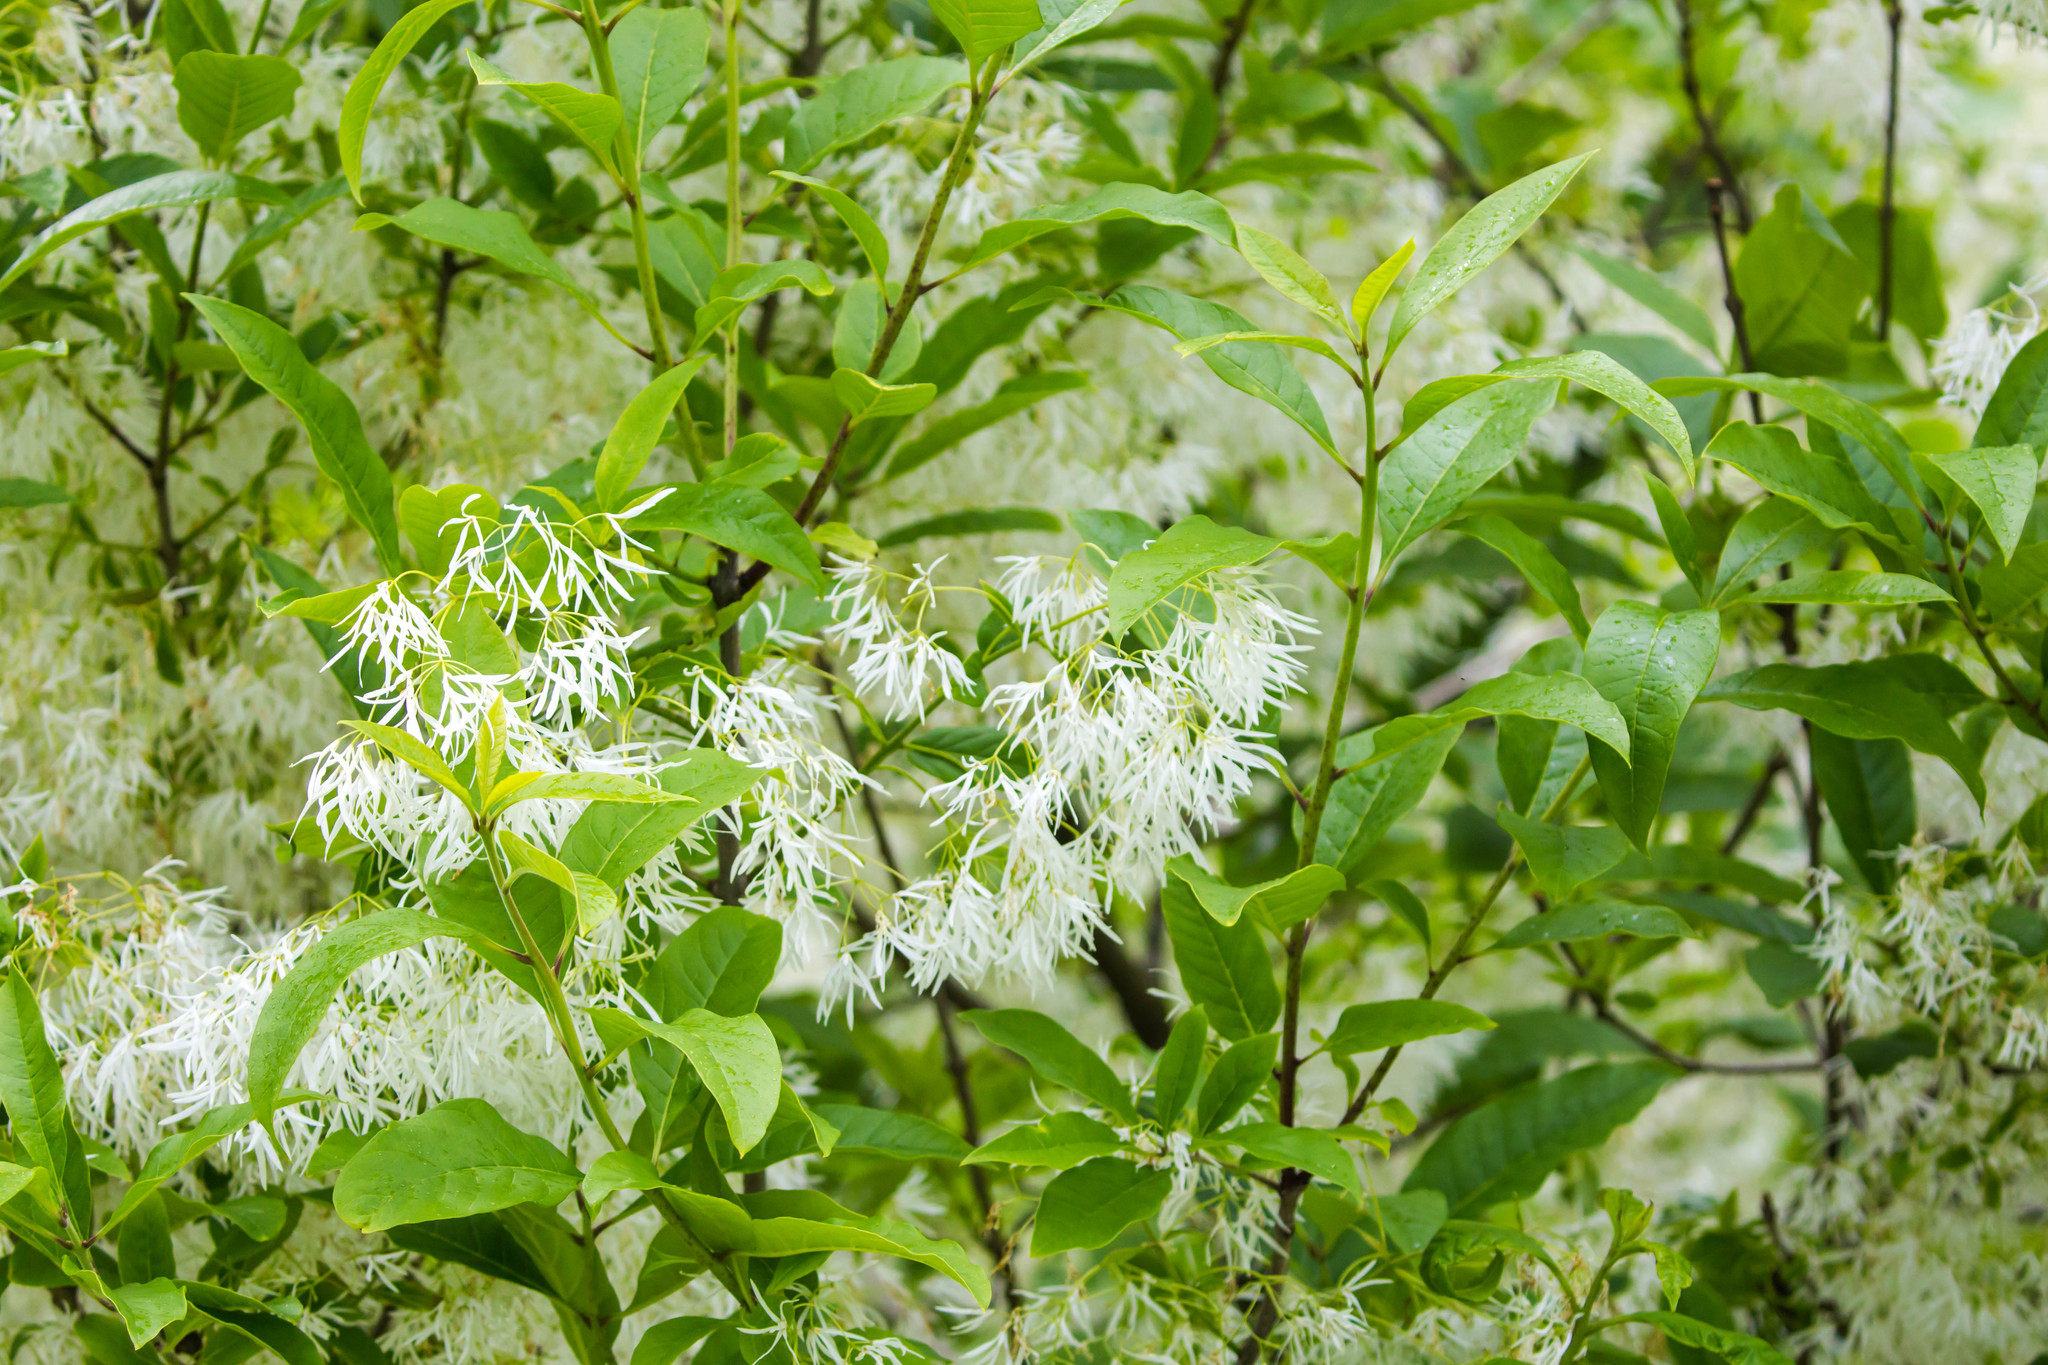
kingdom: Plantae
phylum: Tracheophyta
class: Magnoliopsida
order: Lamiales
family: Oleaceae
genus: Chionanthus
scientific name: Chionanthus virginicus
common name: American fringetree
